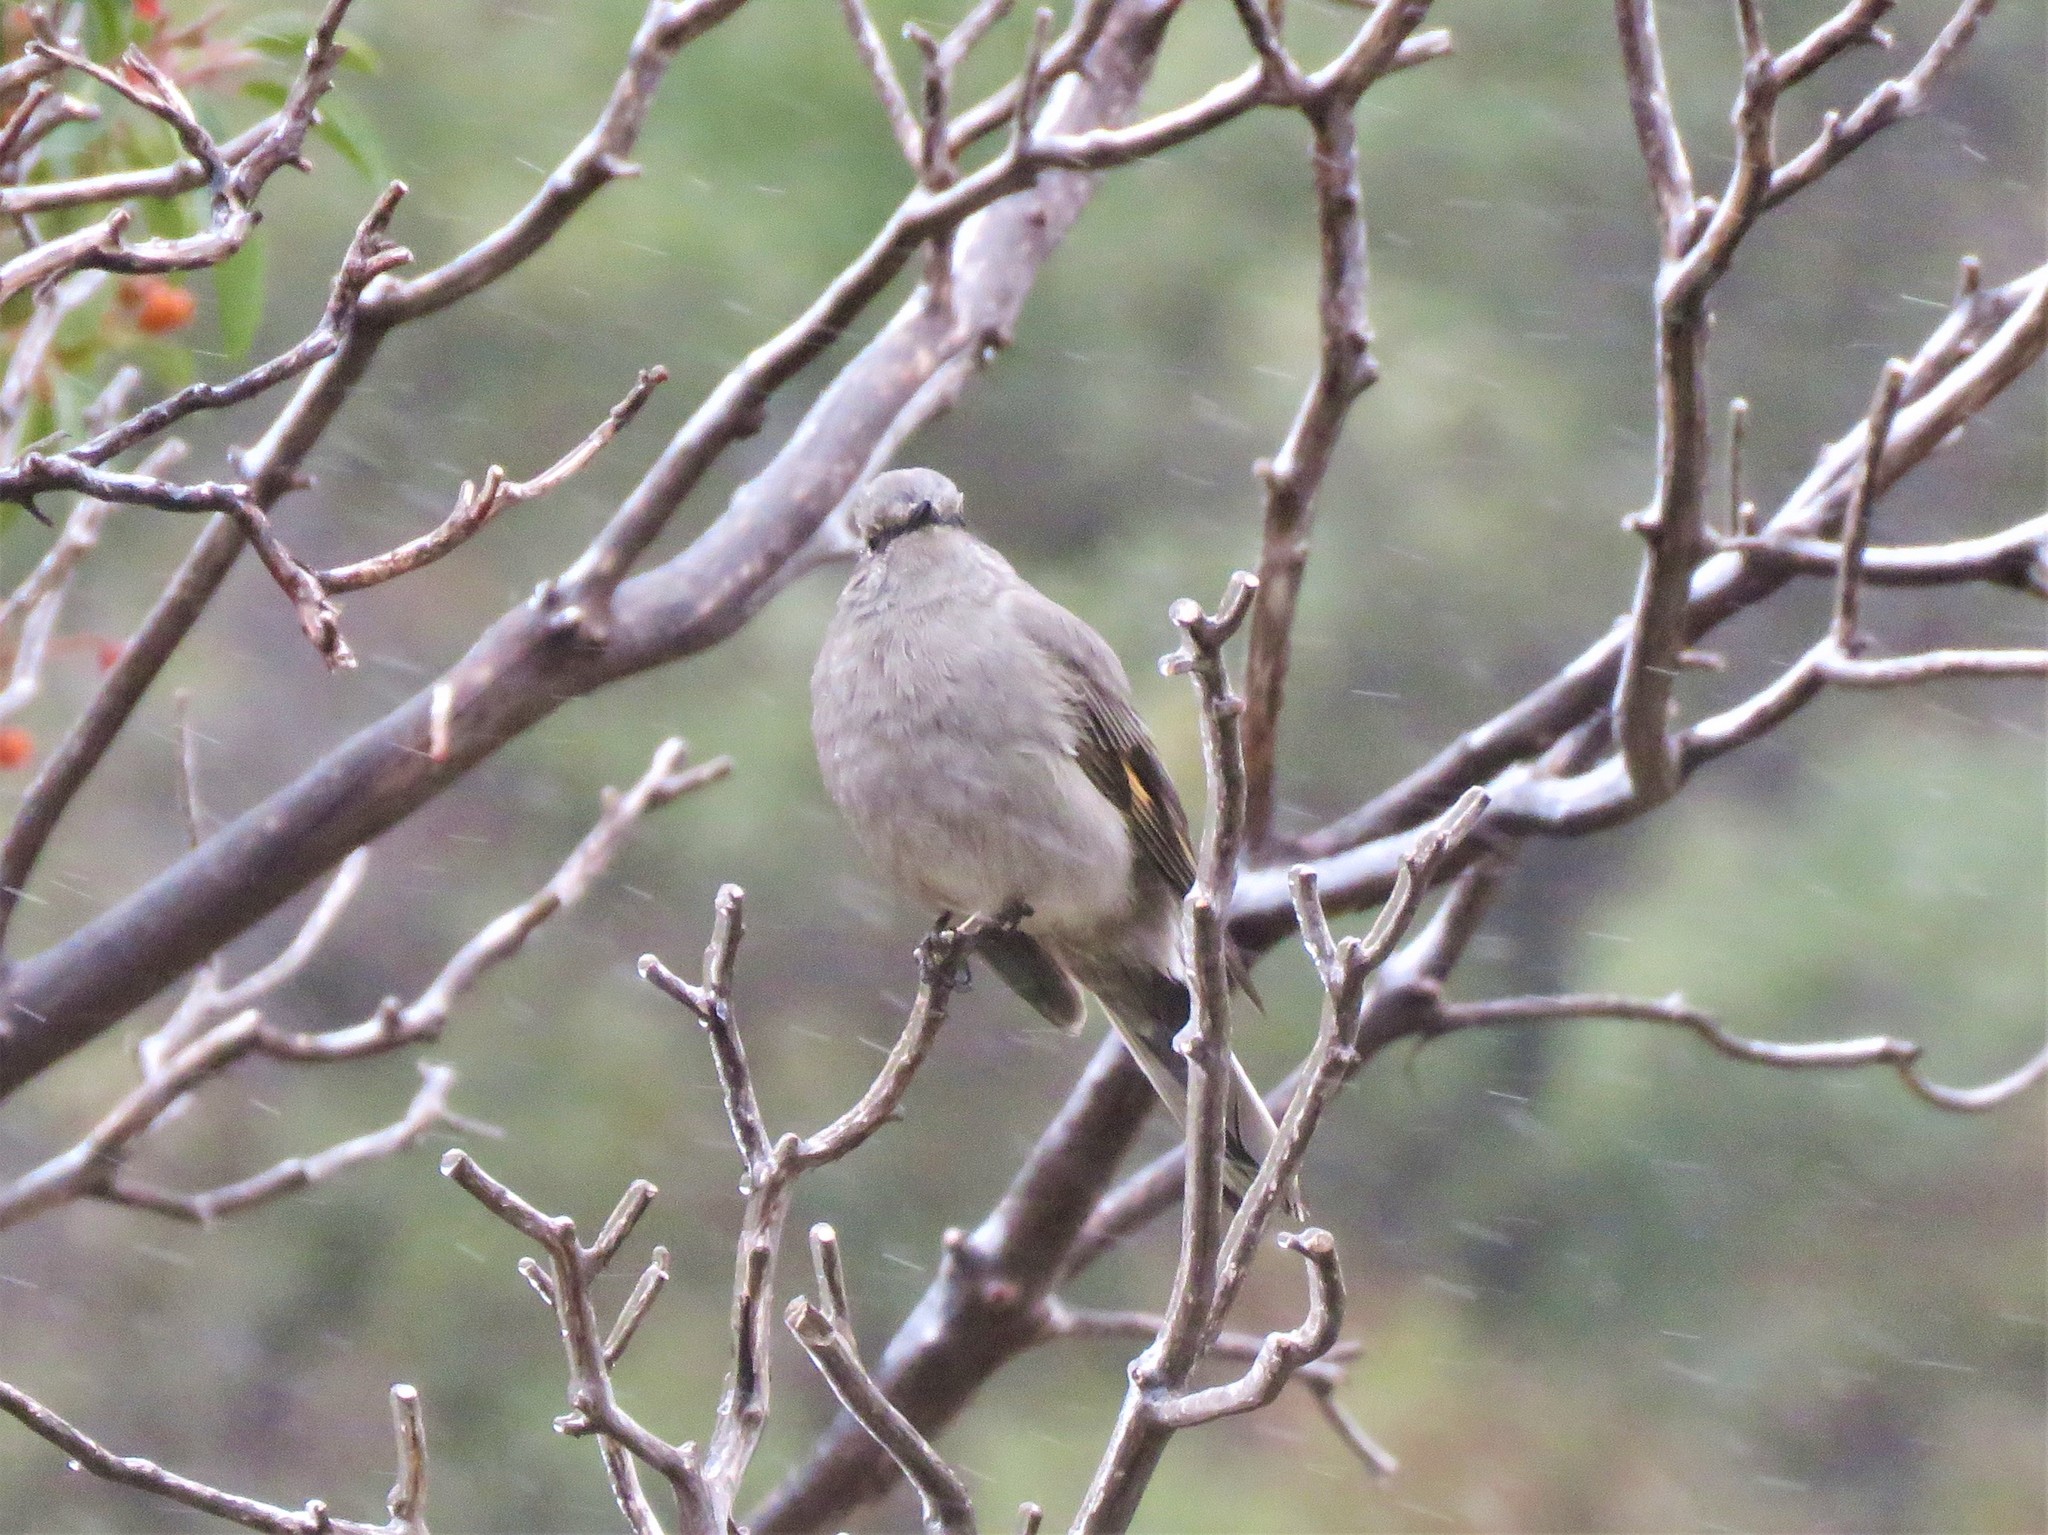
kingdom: Animalia
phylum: Chordata
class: Aves
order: Passeriformes
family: Turdidae
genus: Myadestes
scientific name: Myadestes townsendi
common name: Townsend's solitaire
